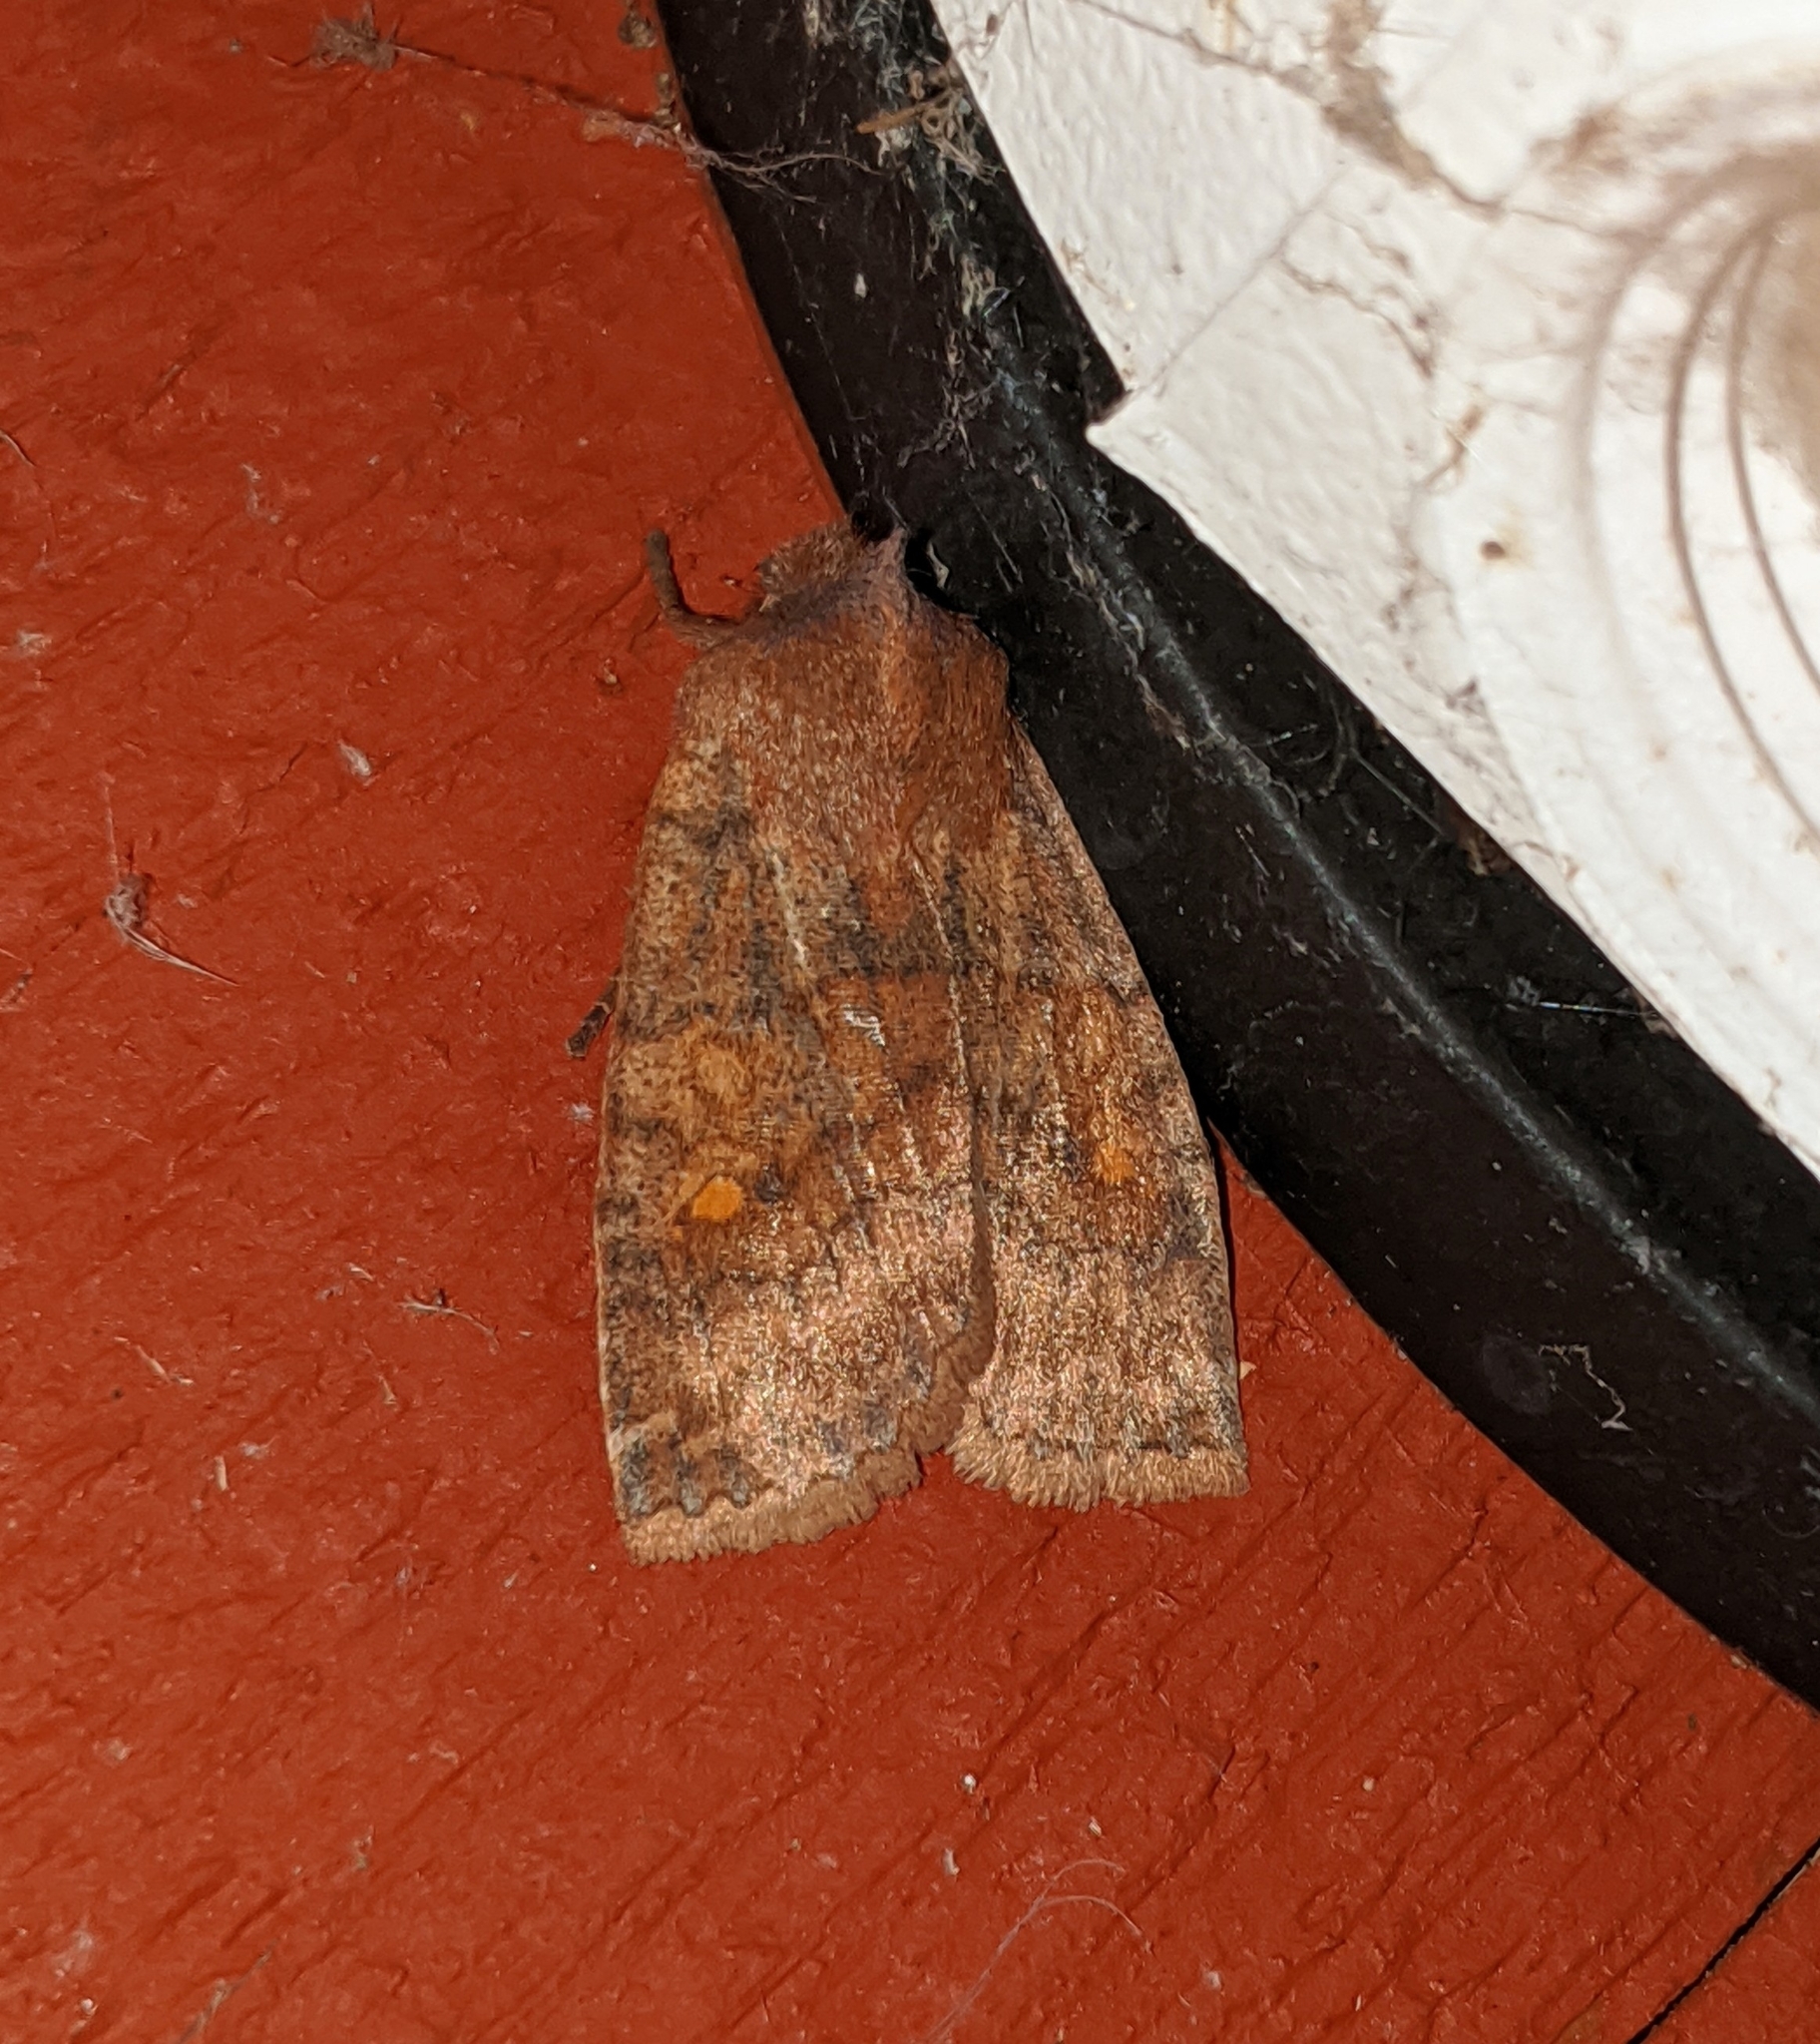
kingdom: Animalia
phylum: Arthropoda
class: Insecta
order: Lepidoptera
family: Noctuidae
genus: Eupsilia
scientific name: Eupsilia tristigmata
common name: Three-spotted sallow
